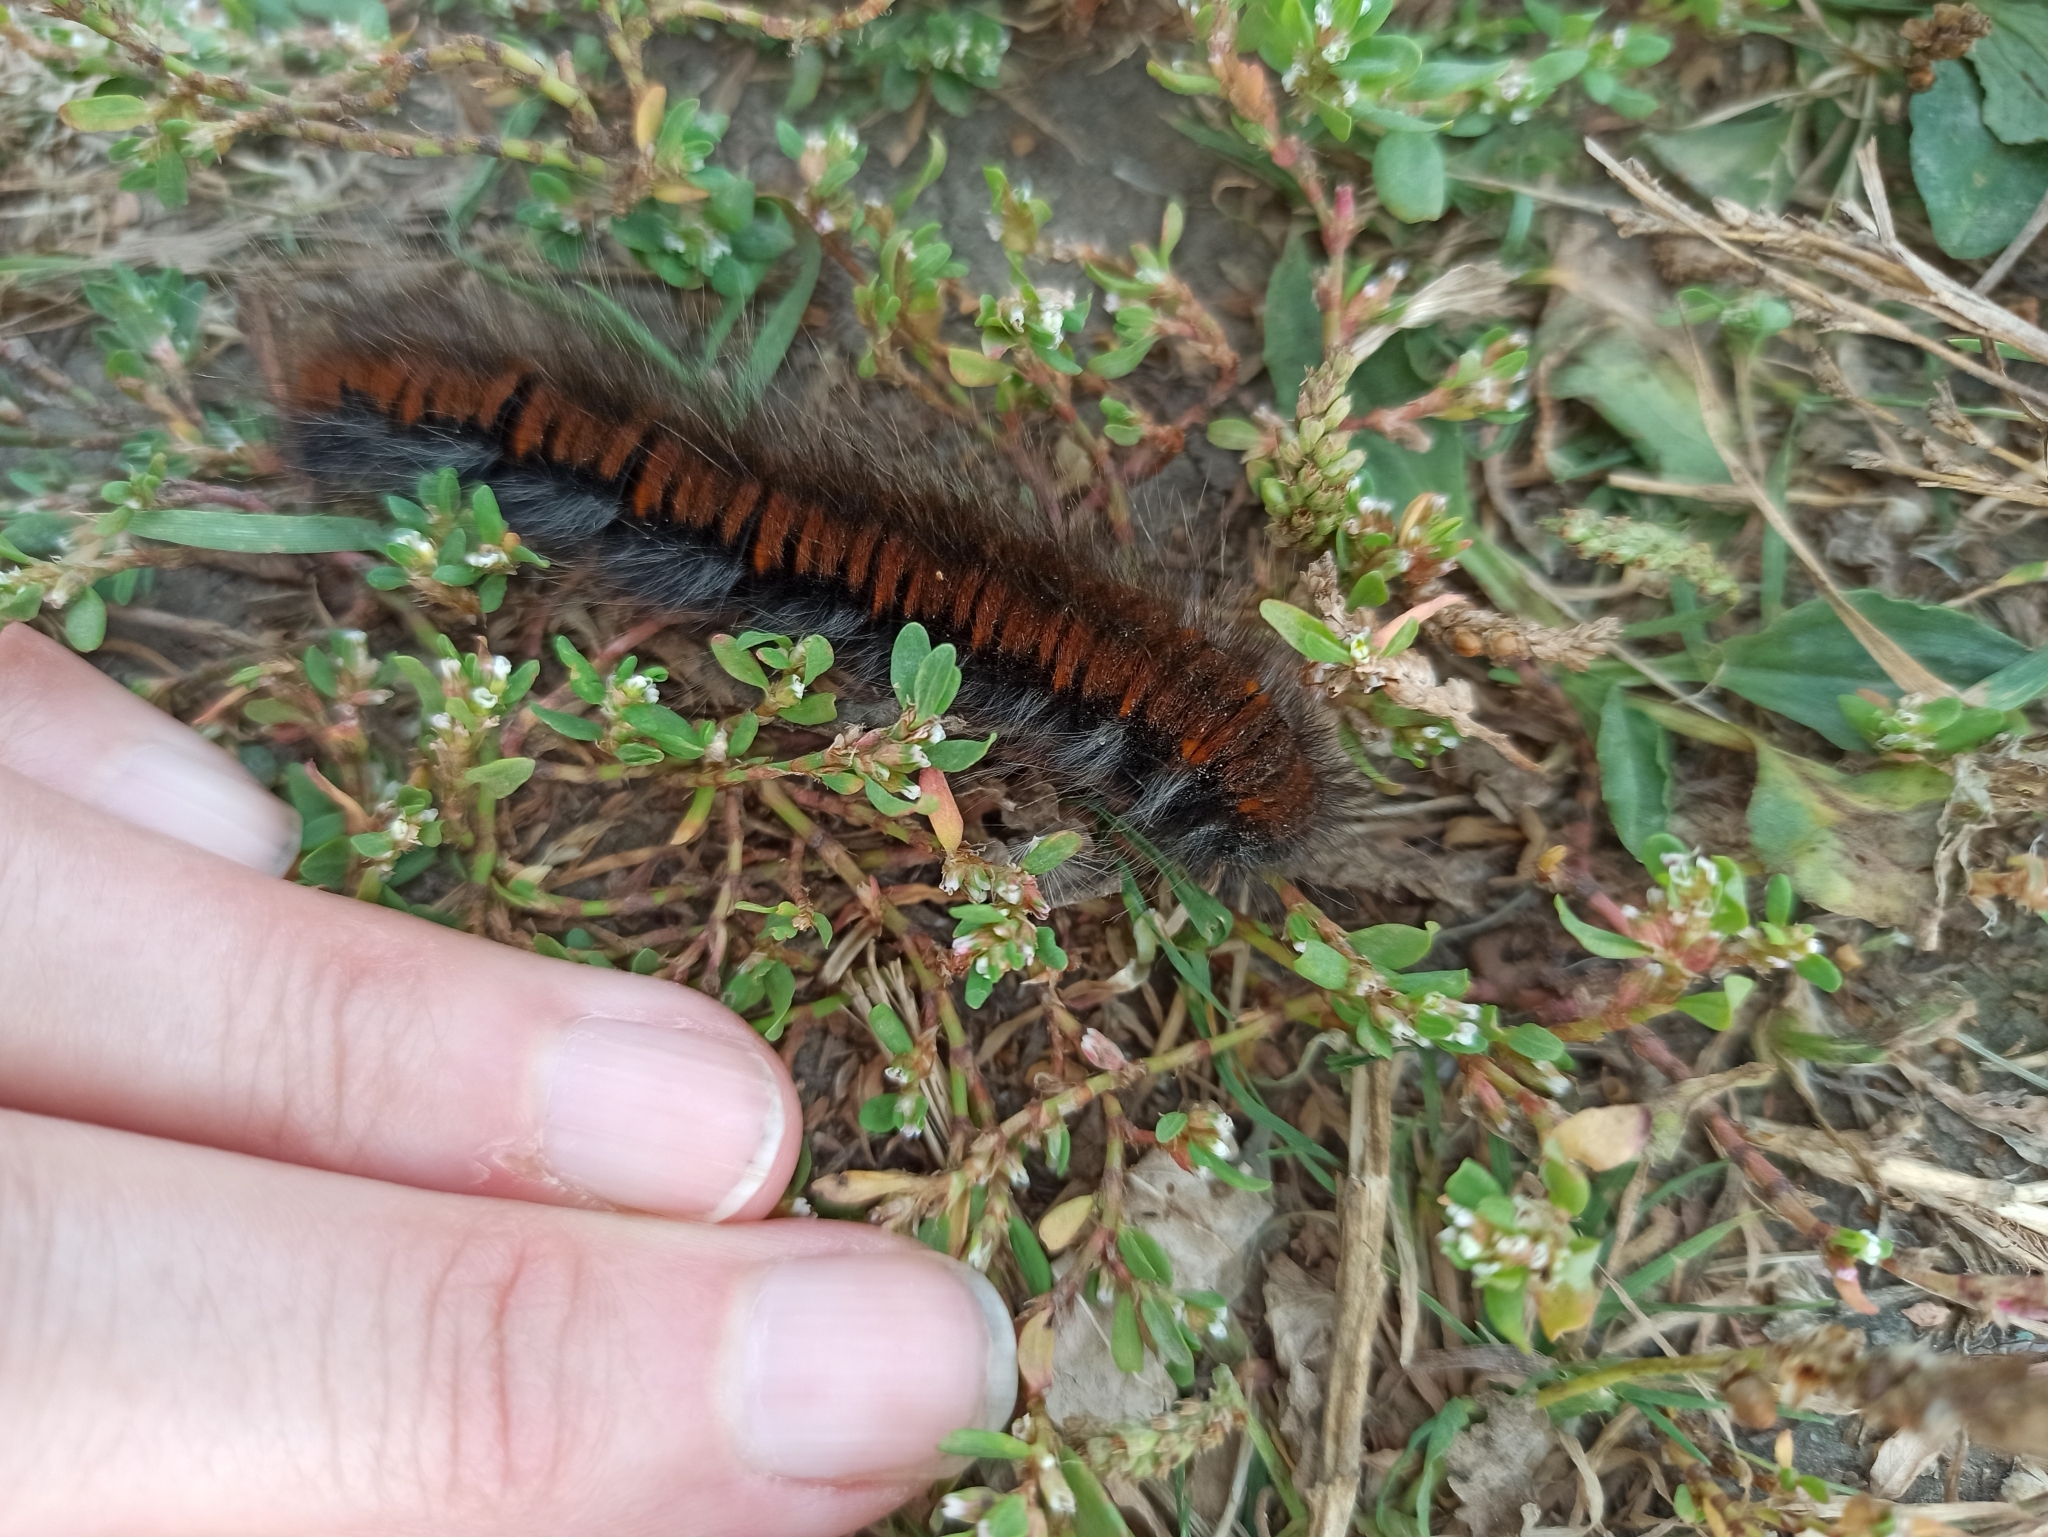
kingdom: Animalia
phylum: Arthropoda
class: Insecta
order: Lepidoptera
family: Lasiocampidae
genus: Macrothylacia
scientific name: Macrothylacia rubi
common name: Fox moth
